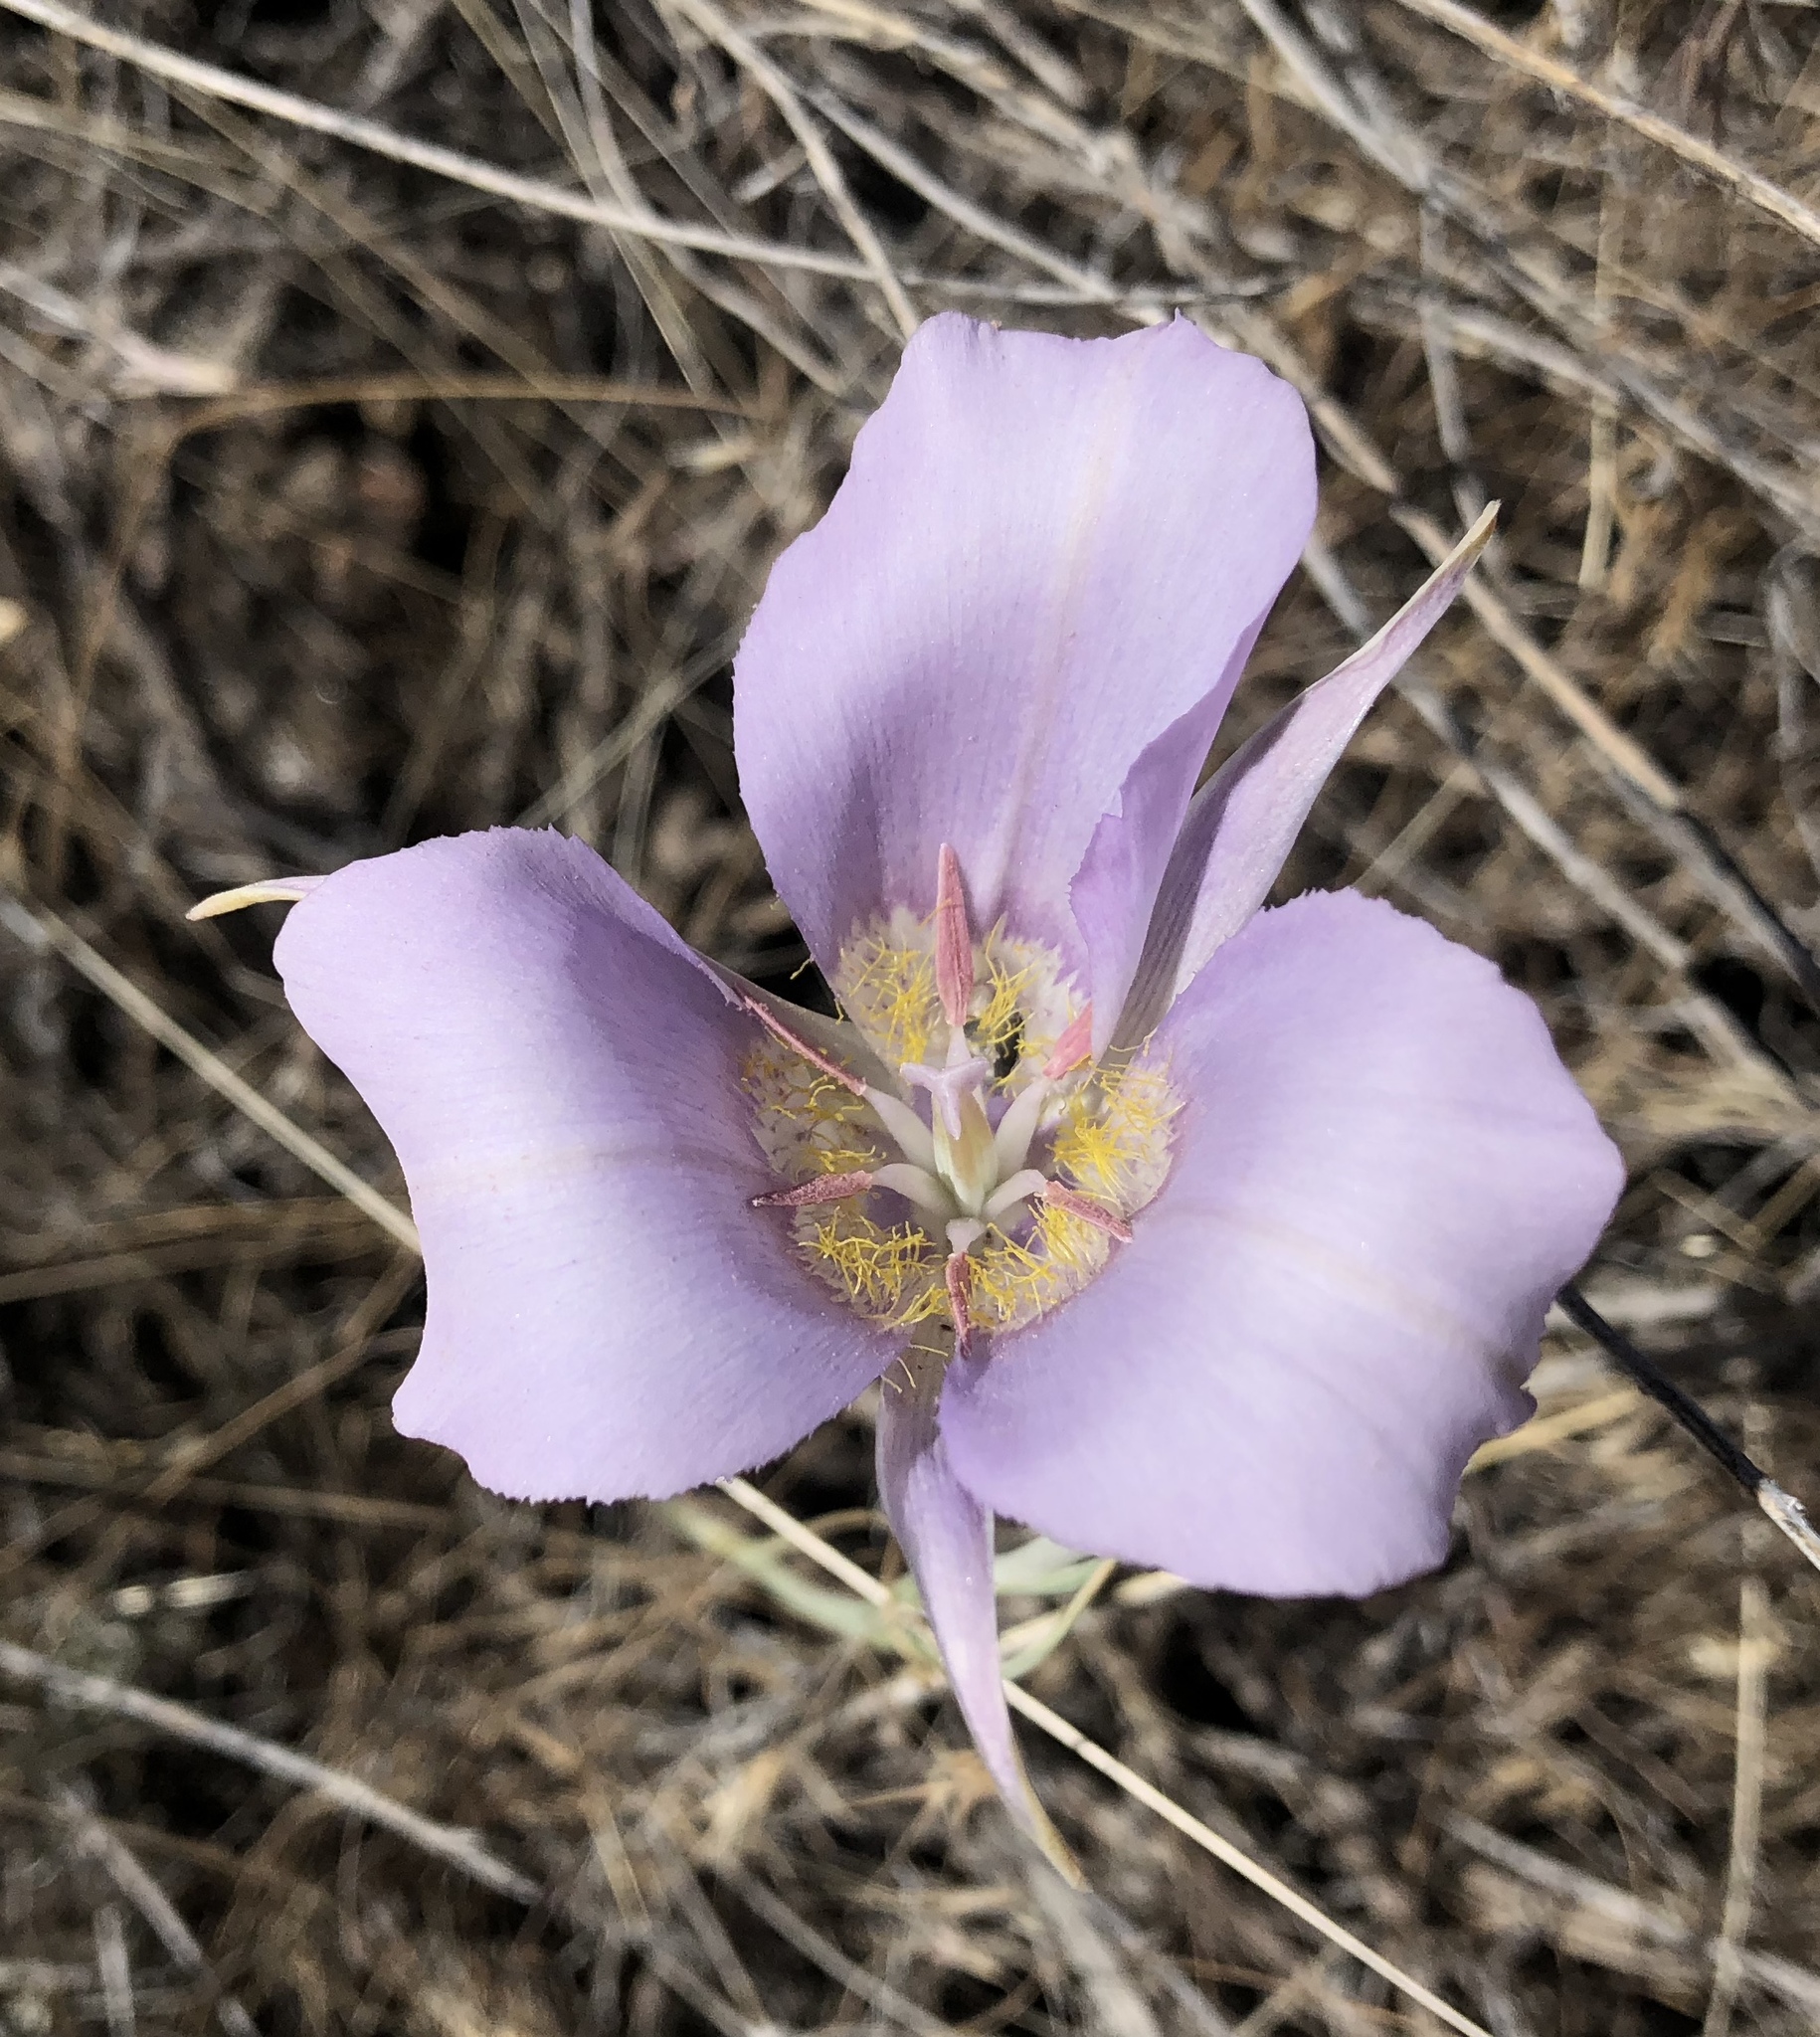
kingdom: Plantae
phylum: Tracheophyta
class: Liliopsida
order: Liliales
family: Liliaceae
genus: Calochortus
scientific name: Calochortus macrocarpus
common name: Green-band mariposa lily
